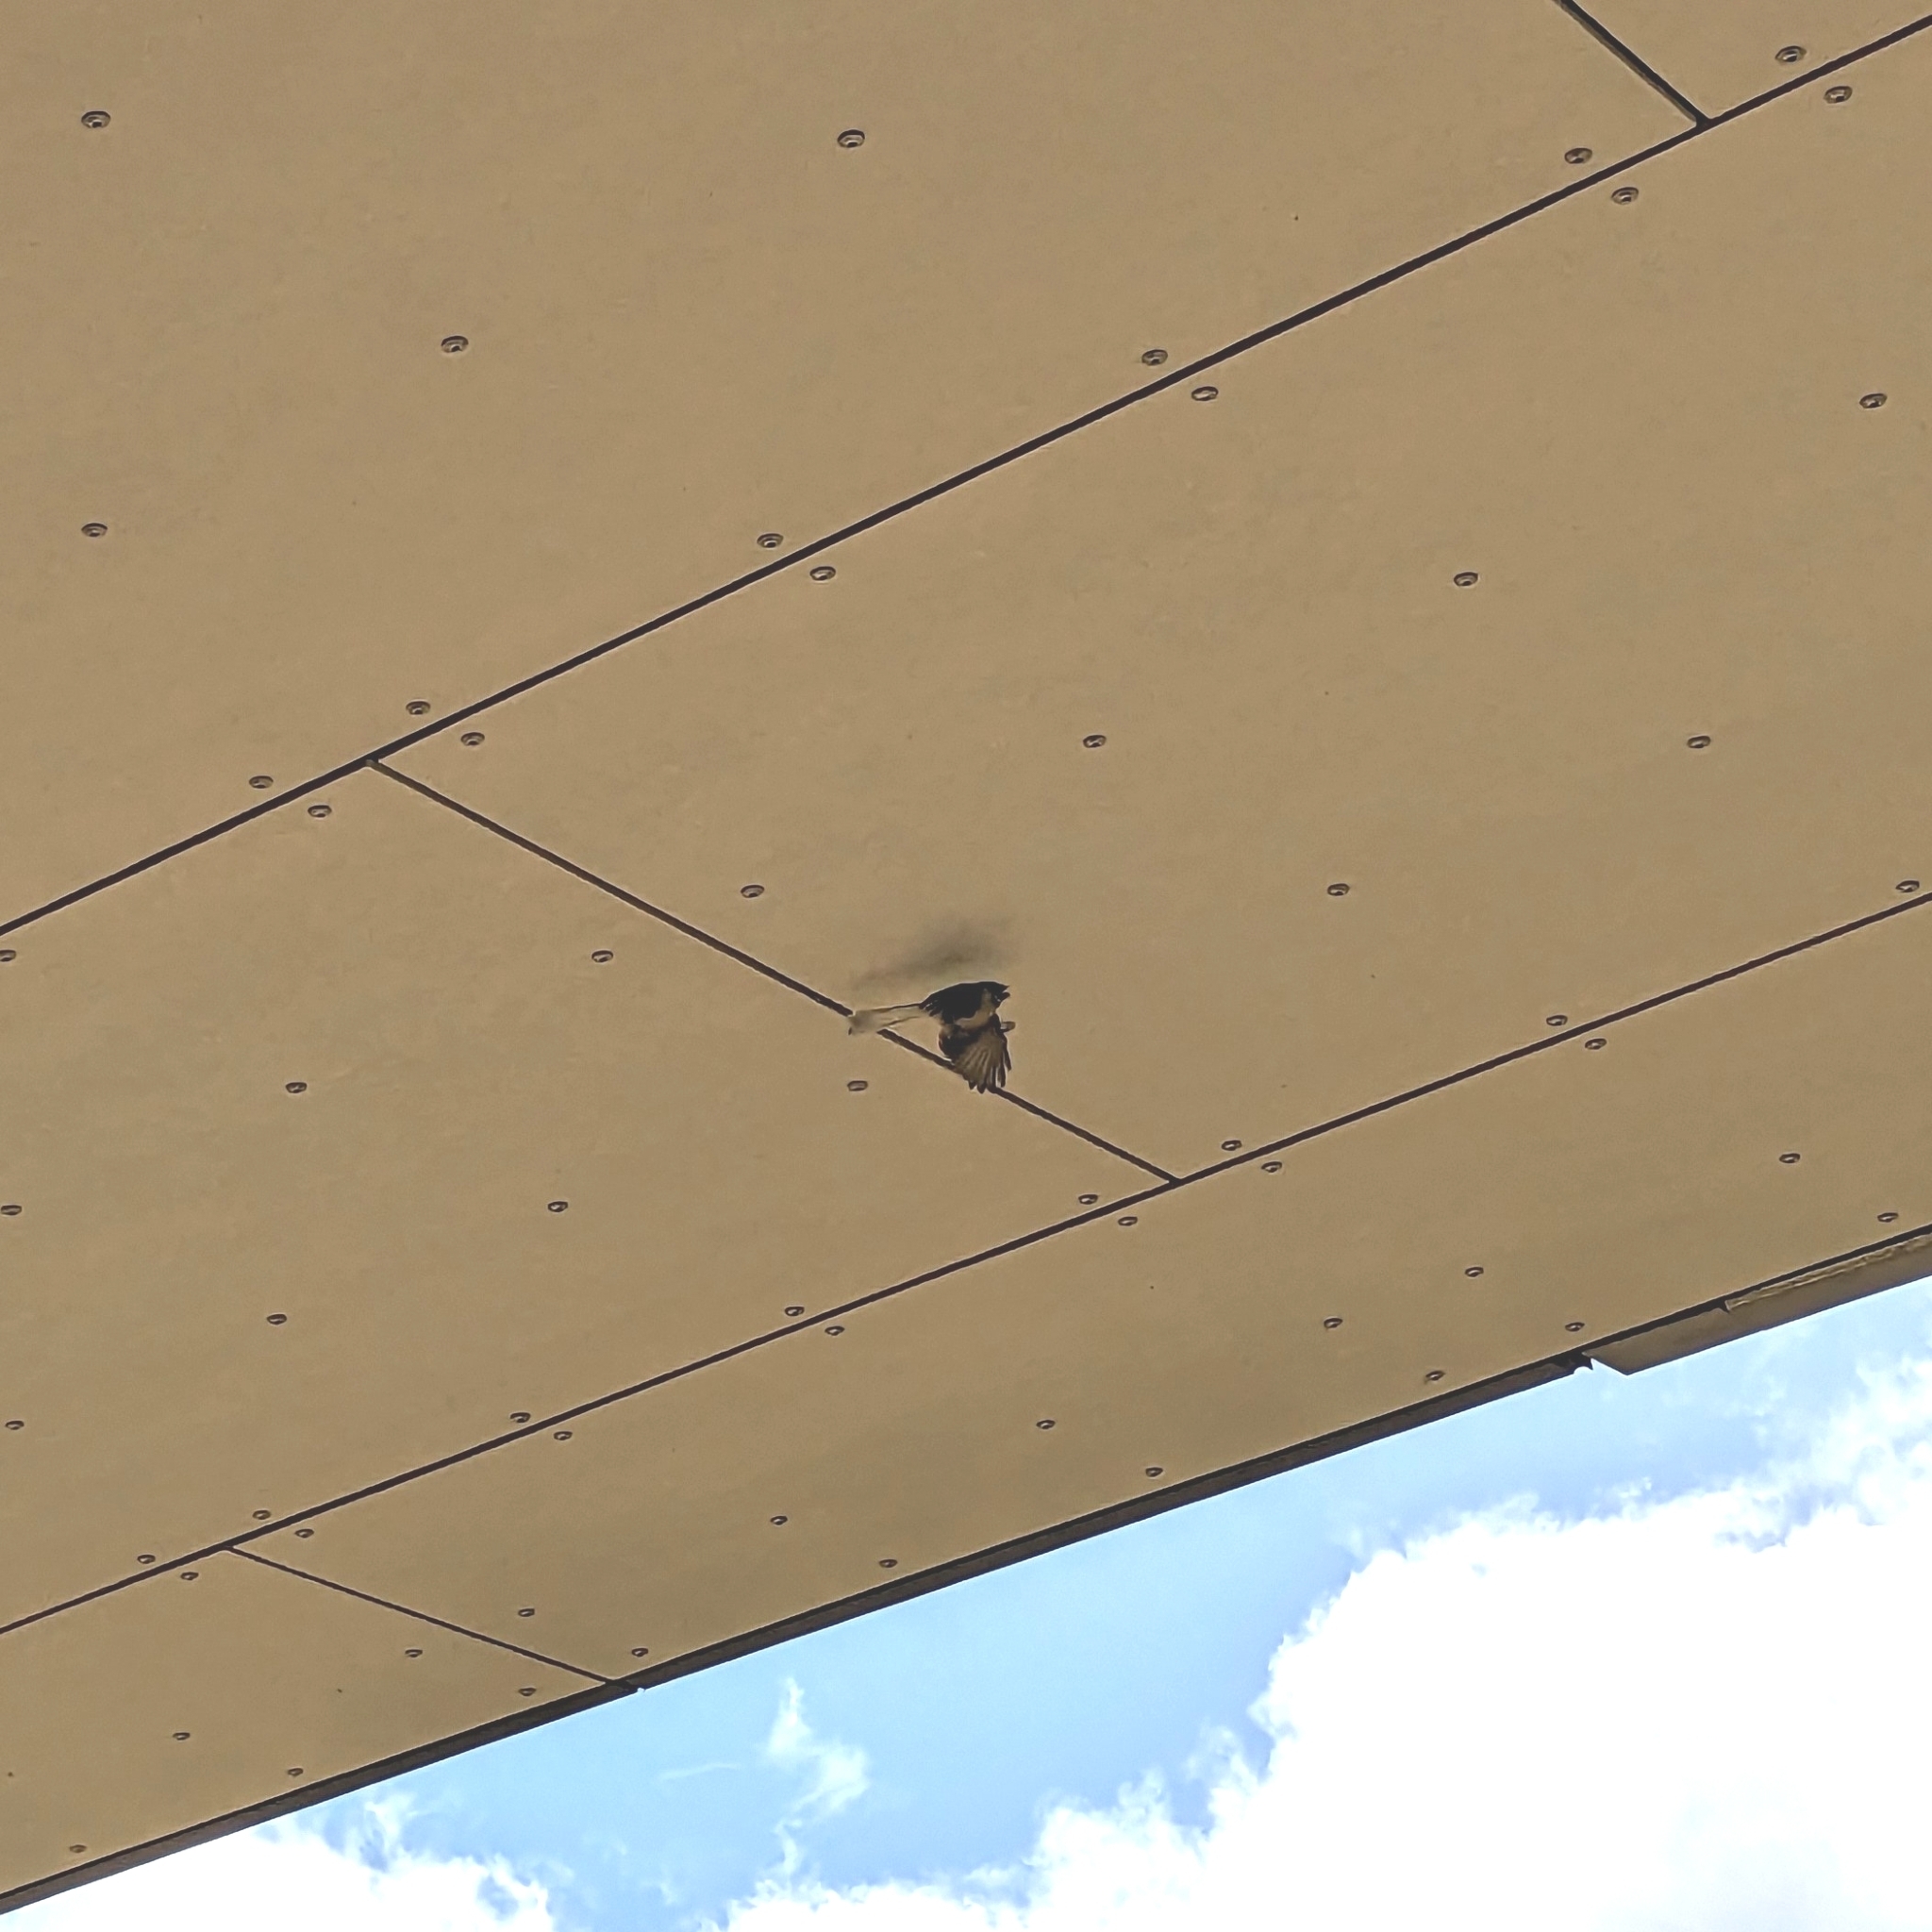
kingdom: Animalia
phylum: Chordata
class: Aves
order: Passeriformes
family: Rhipiduridae
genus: Rhipidura
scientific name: Rhipidura fuliginosa
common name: New zealand fantail
